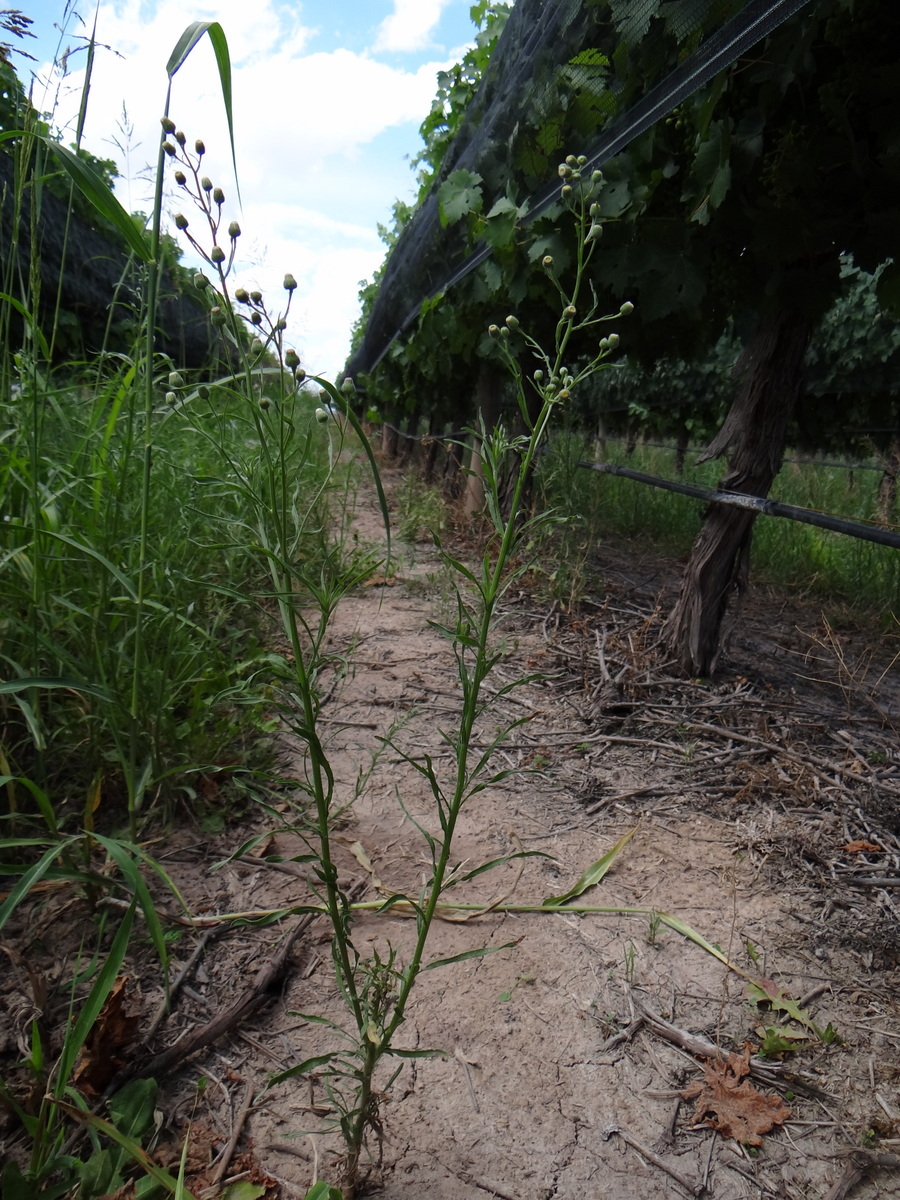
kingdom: Plantae
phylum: Tracheophyta
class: Magnoliopsida
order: Asterales
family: Asteraceae
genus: Erigeron
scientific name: Erigeron bonariensis
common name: Argentine fleabane
